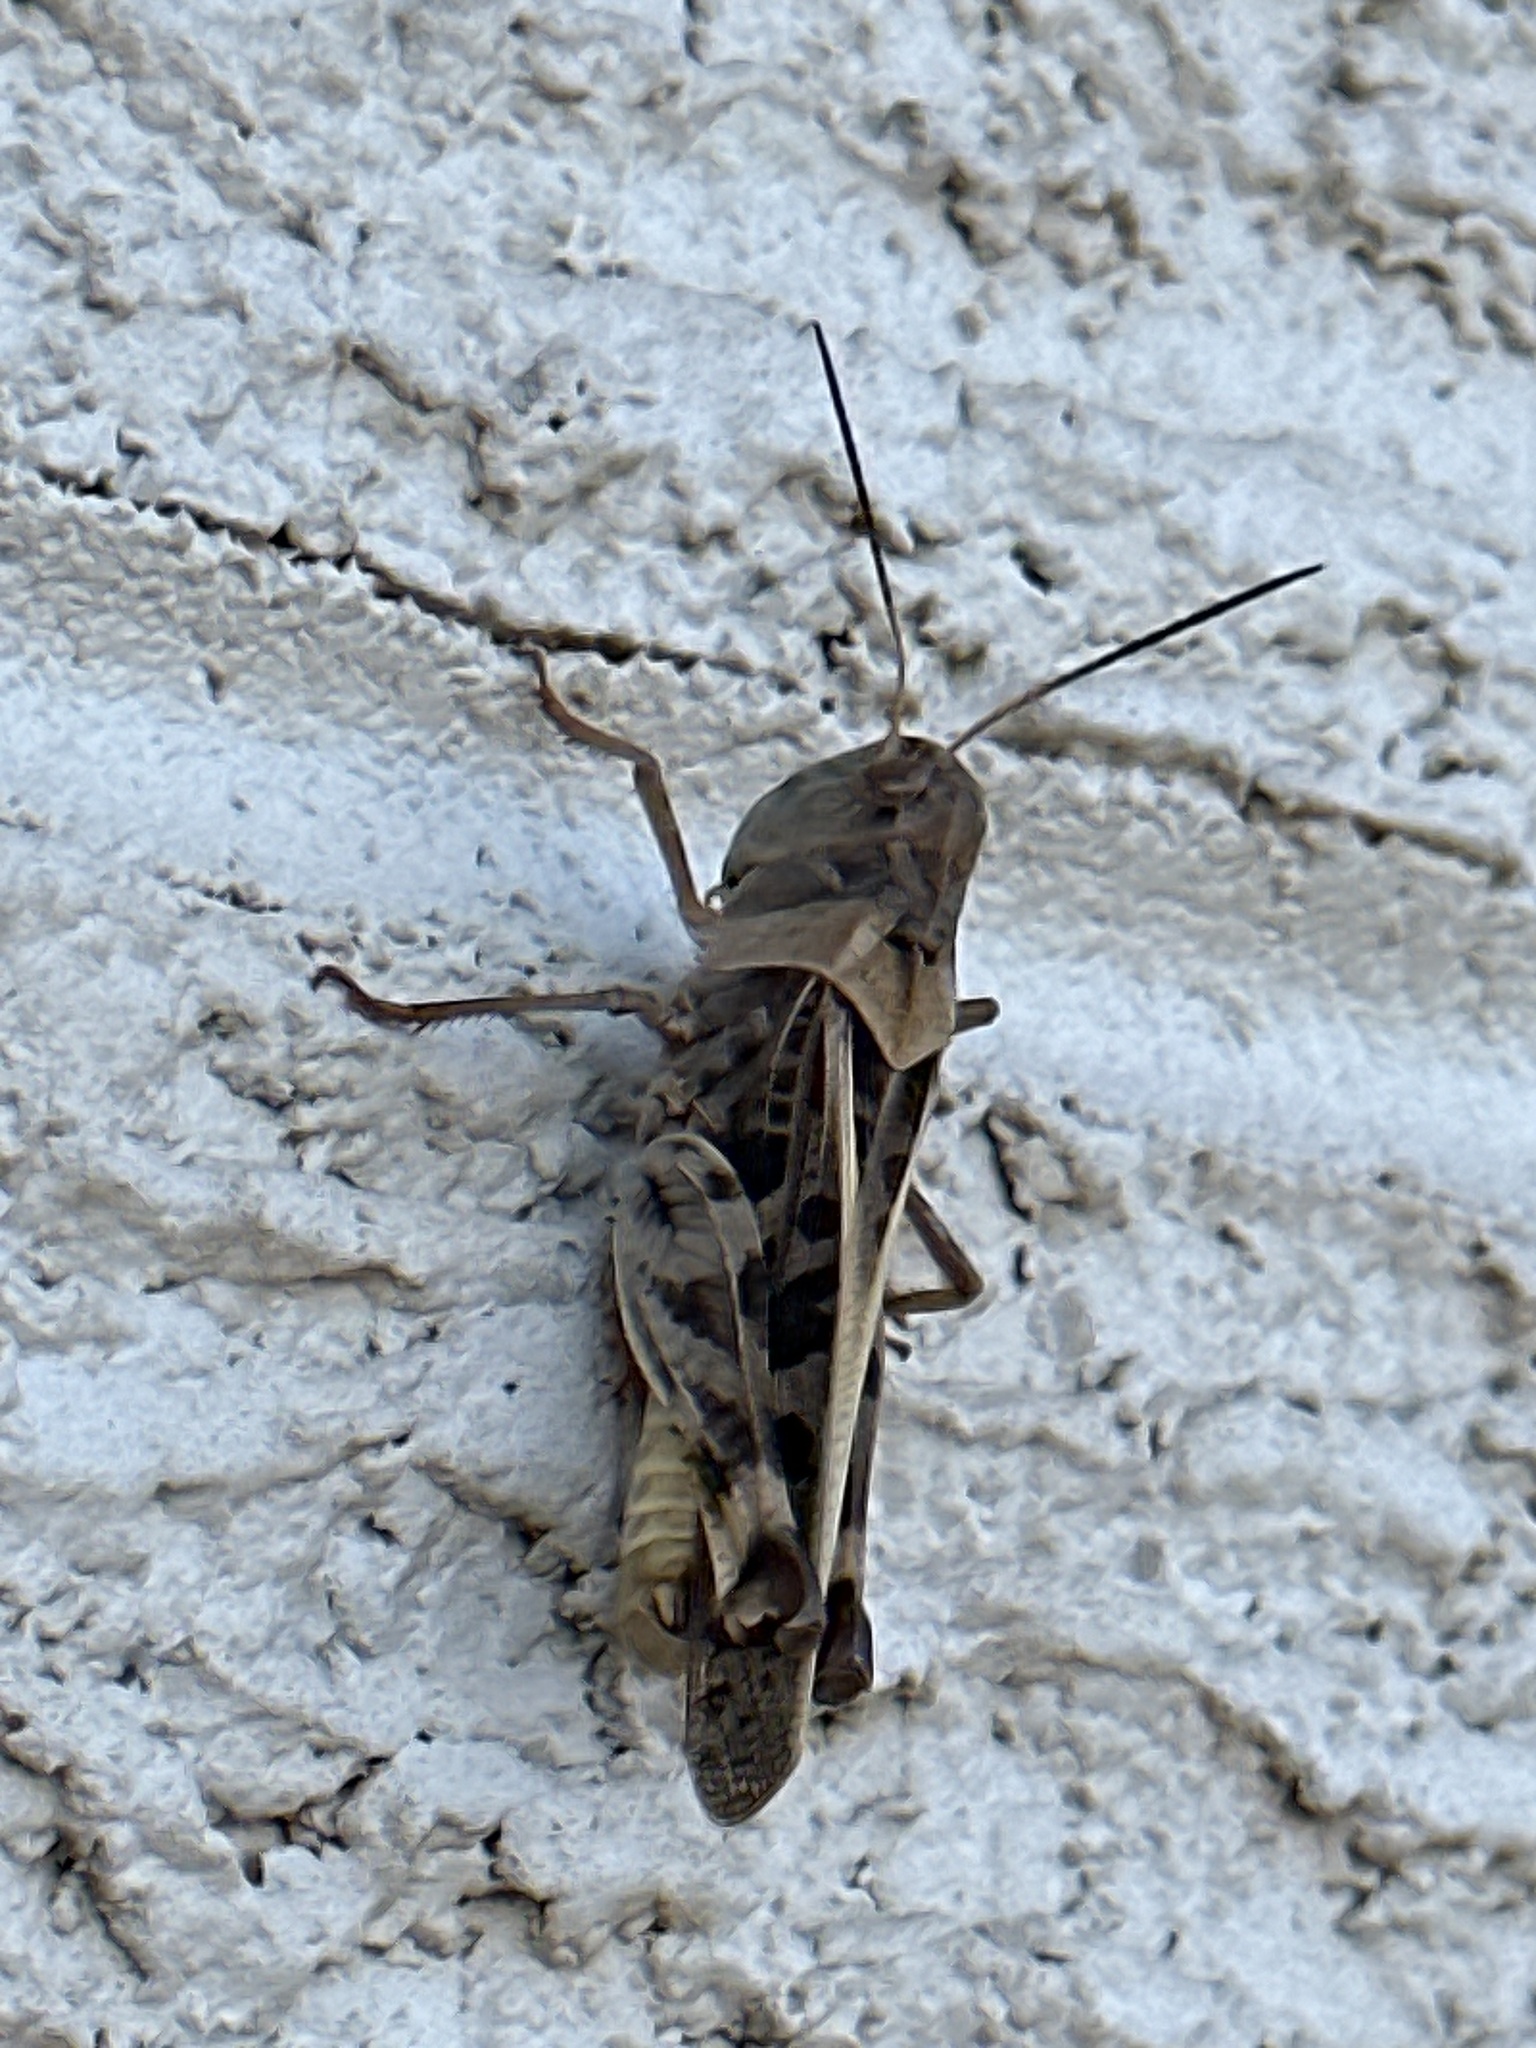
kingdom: Animalia
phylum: Arthropoda
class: Insecta
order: Orthoptera
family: Acrididae
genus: Hippiscus
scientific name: Hippiscus ocelote
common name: Wrinkled grasshopper
